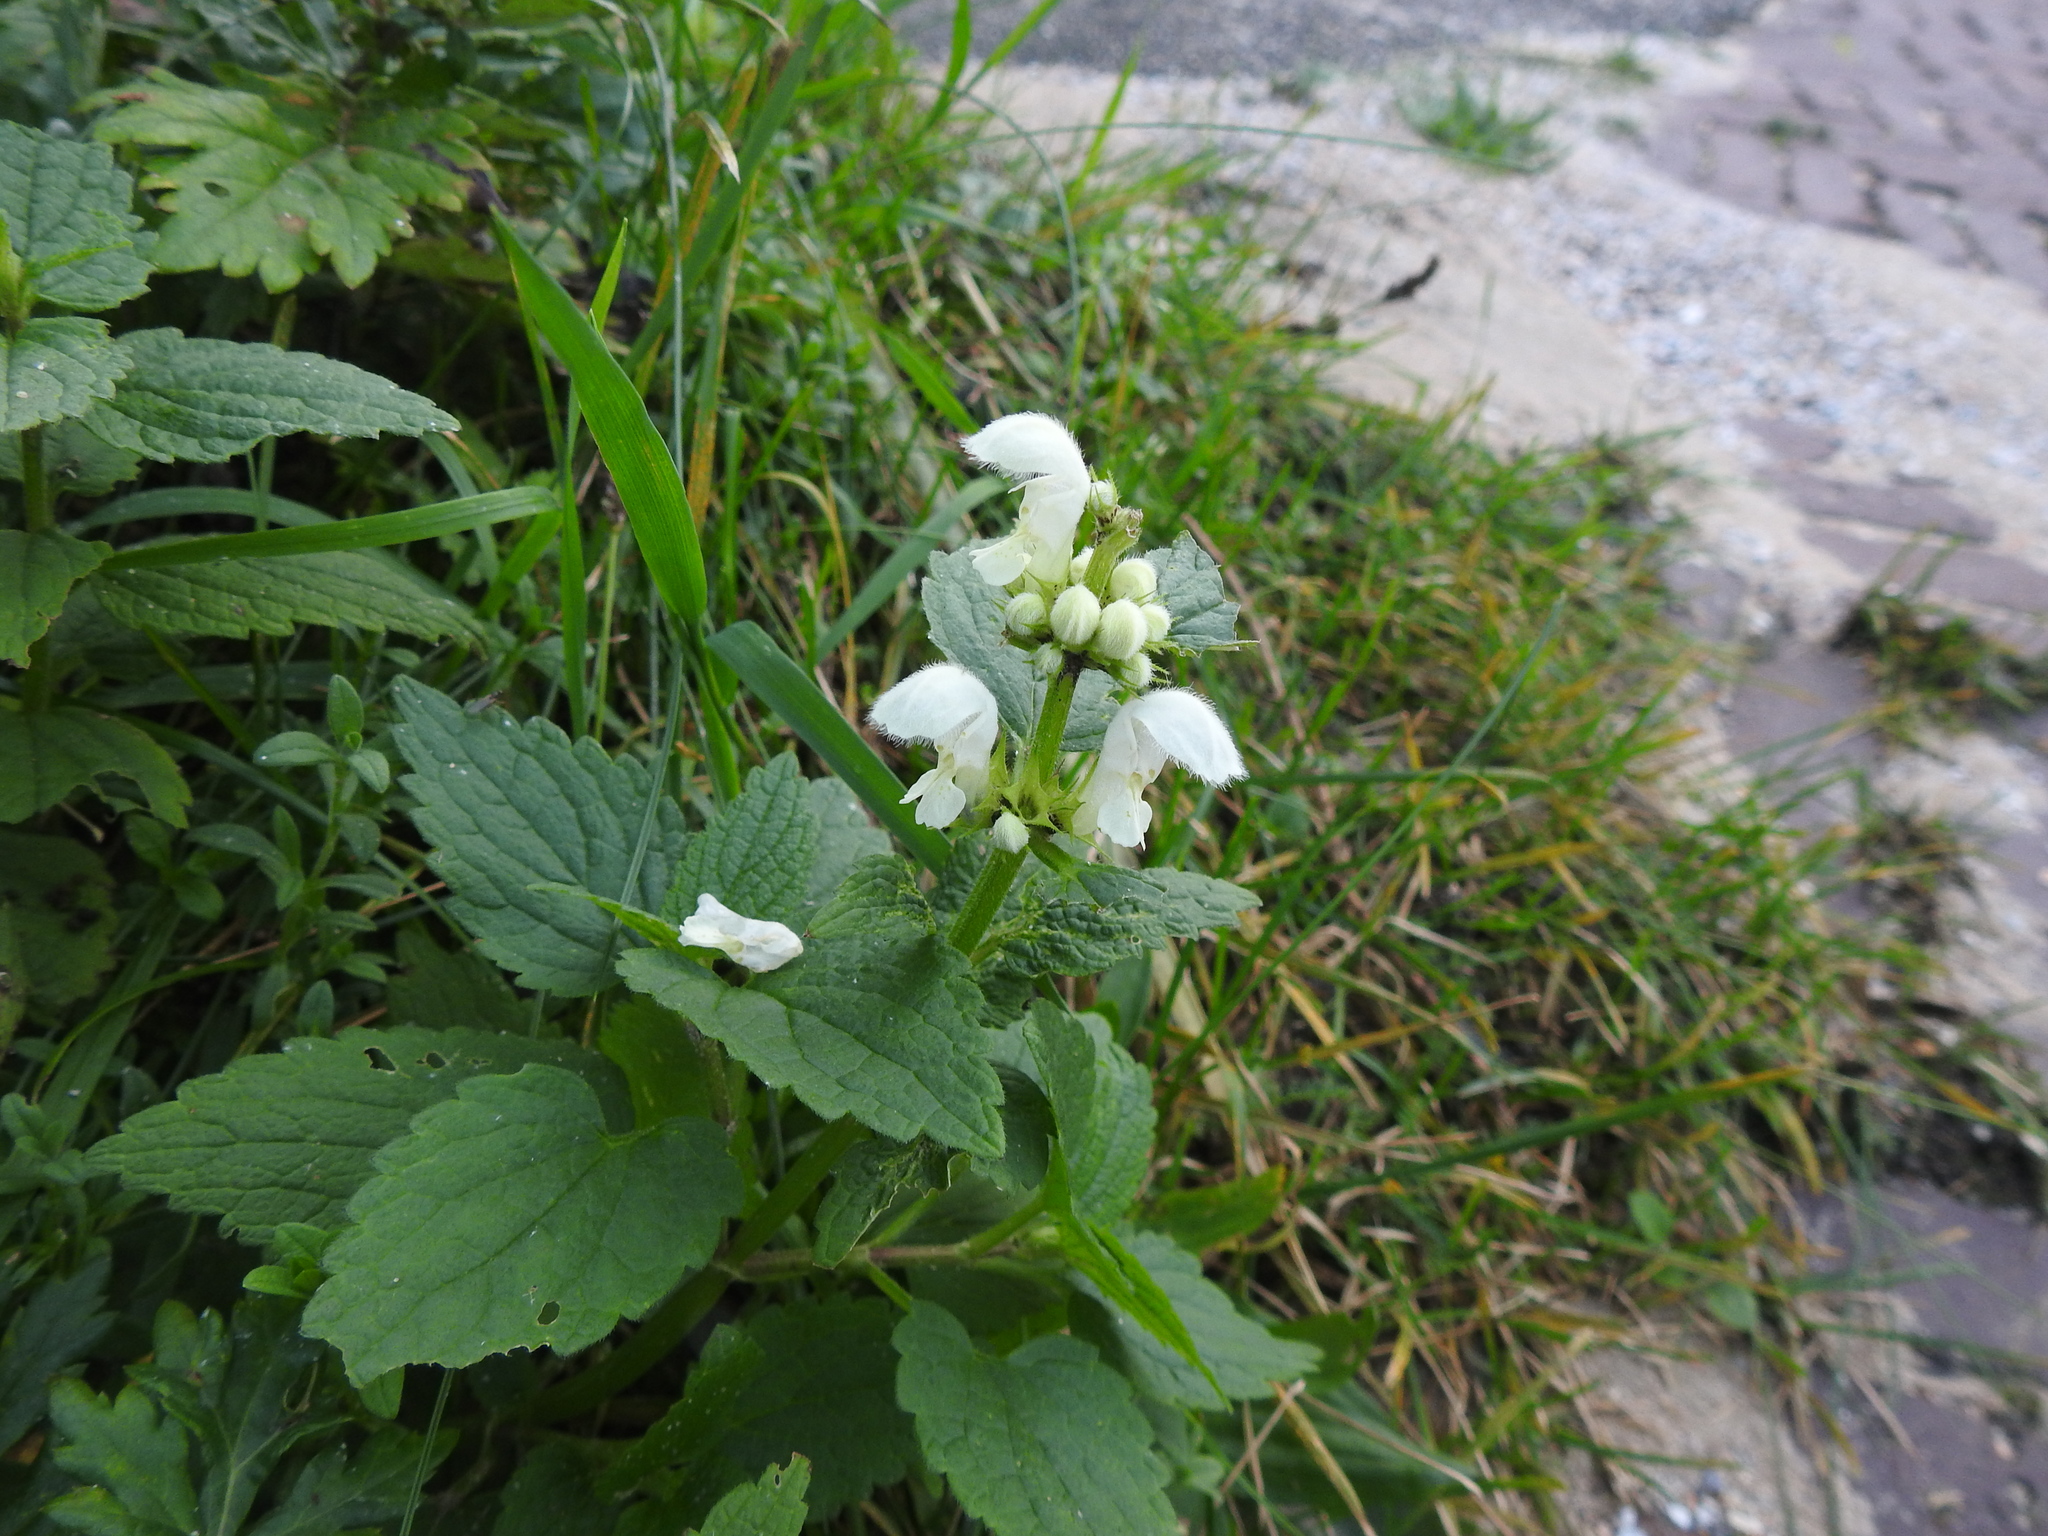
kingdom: Plantae
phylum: Tracheophyta
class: Magnoliopsida
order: Lamiales
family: Lamiaceae
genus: Lamium
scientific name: Lamium album
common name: White dead-nettle
